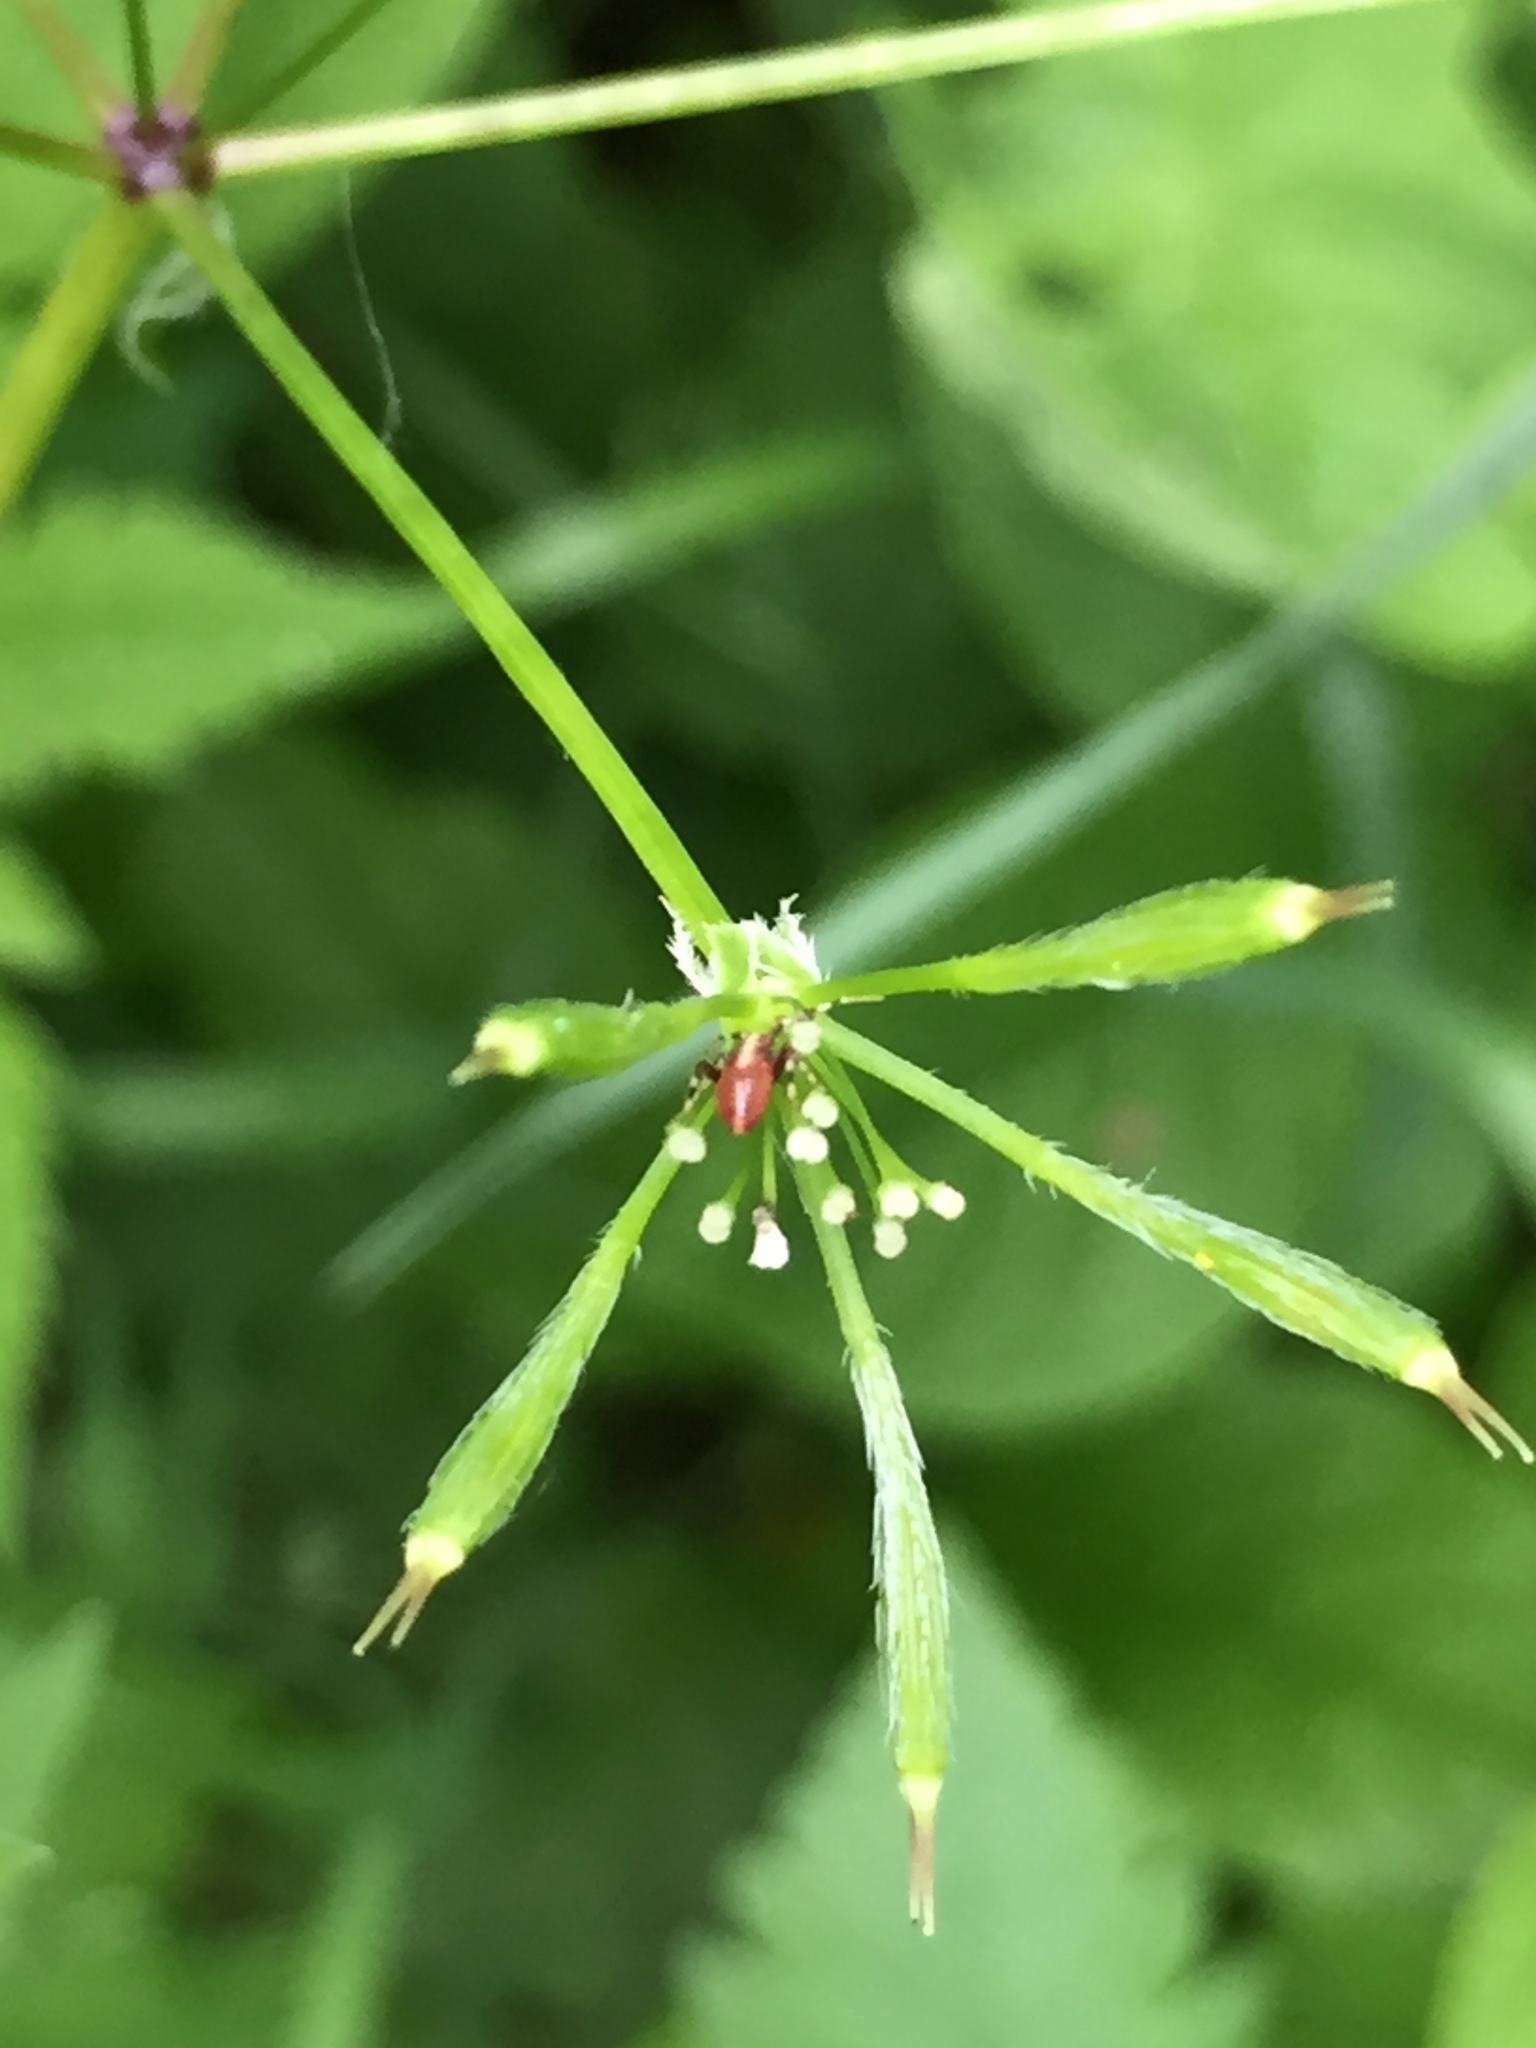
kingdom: Plantae
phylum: Tracheophyta
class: Magnoliopsida
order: Apiales
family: Apiaceae
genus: Osmorhiza
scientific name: Osmorhiza longistylis
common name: Smooth sweet cicely
